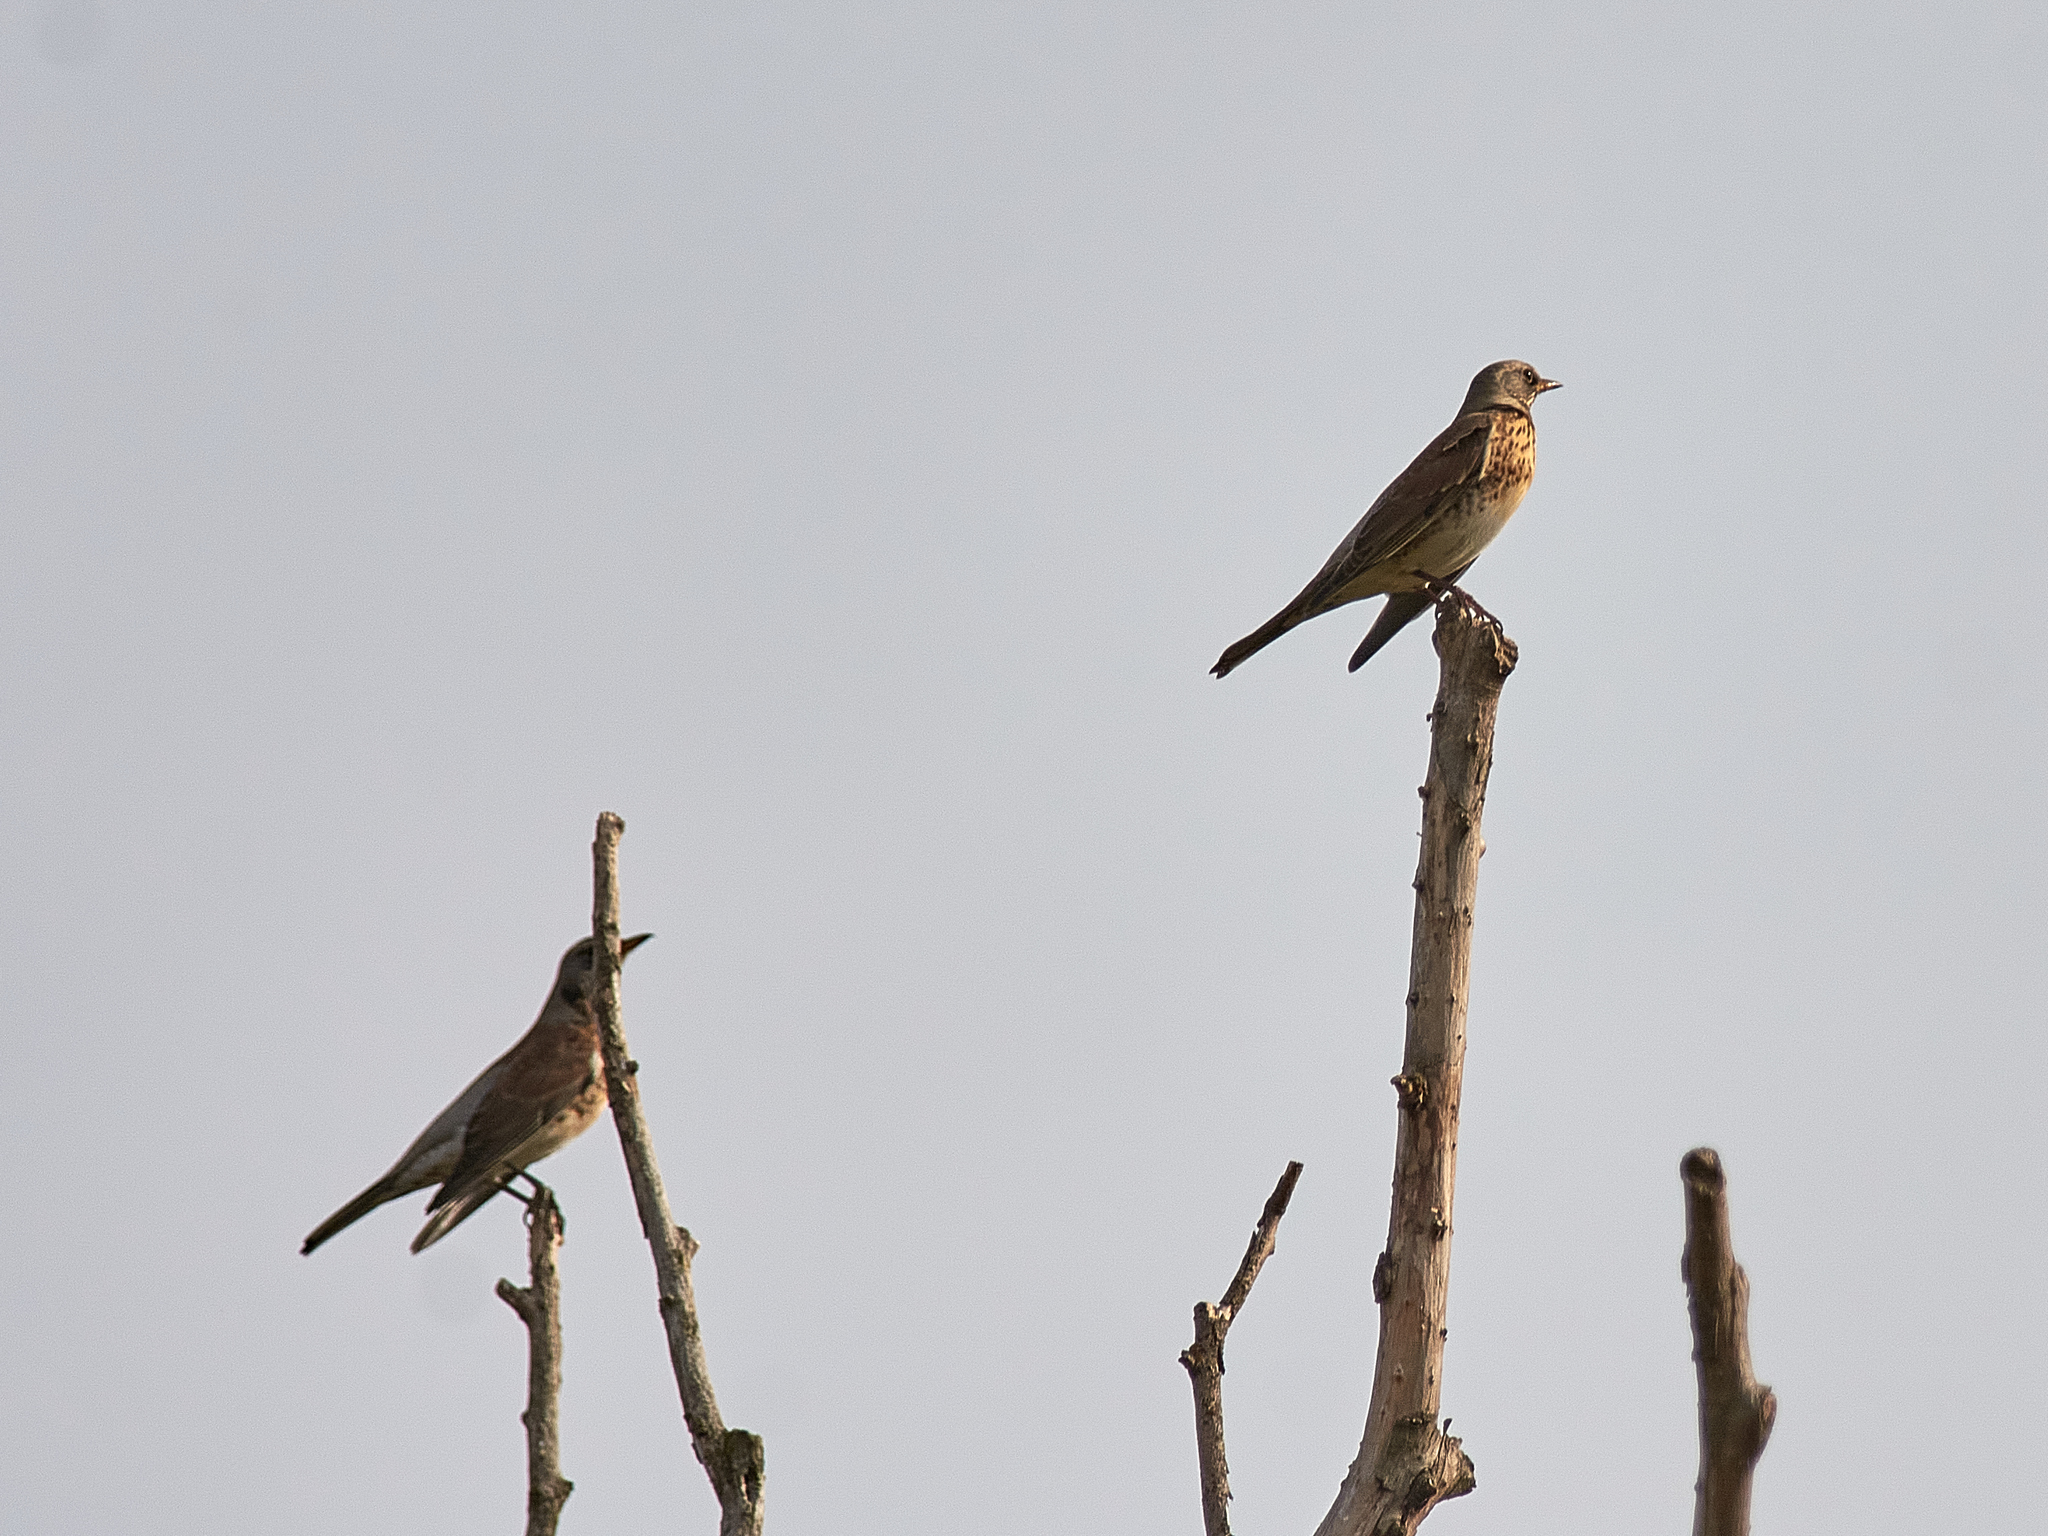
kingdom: Animalia
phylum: Chordata
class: Aves
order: Passeriformes
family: Turdidae
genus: Turdus
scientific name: Turdus pilaris
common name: Fieldfare
